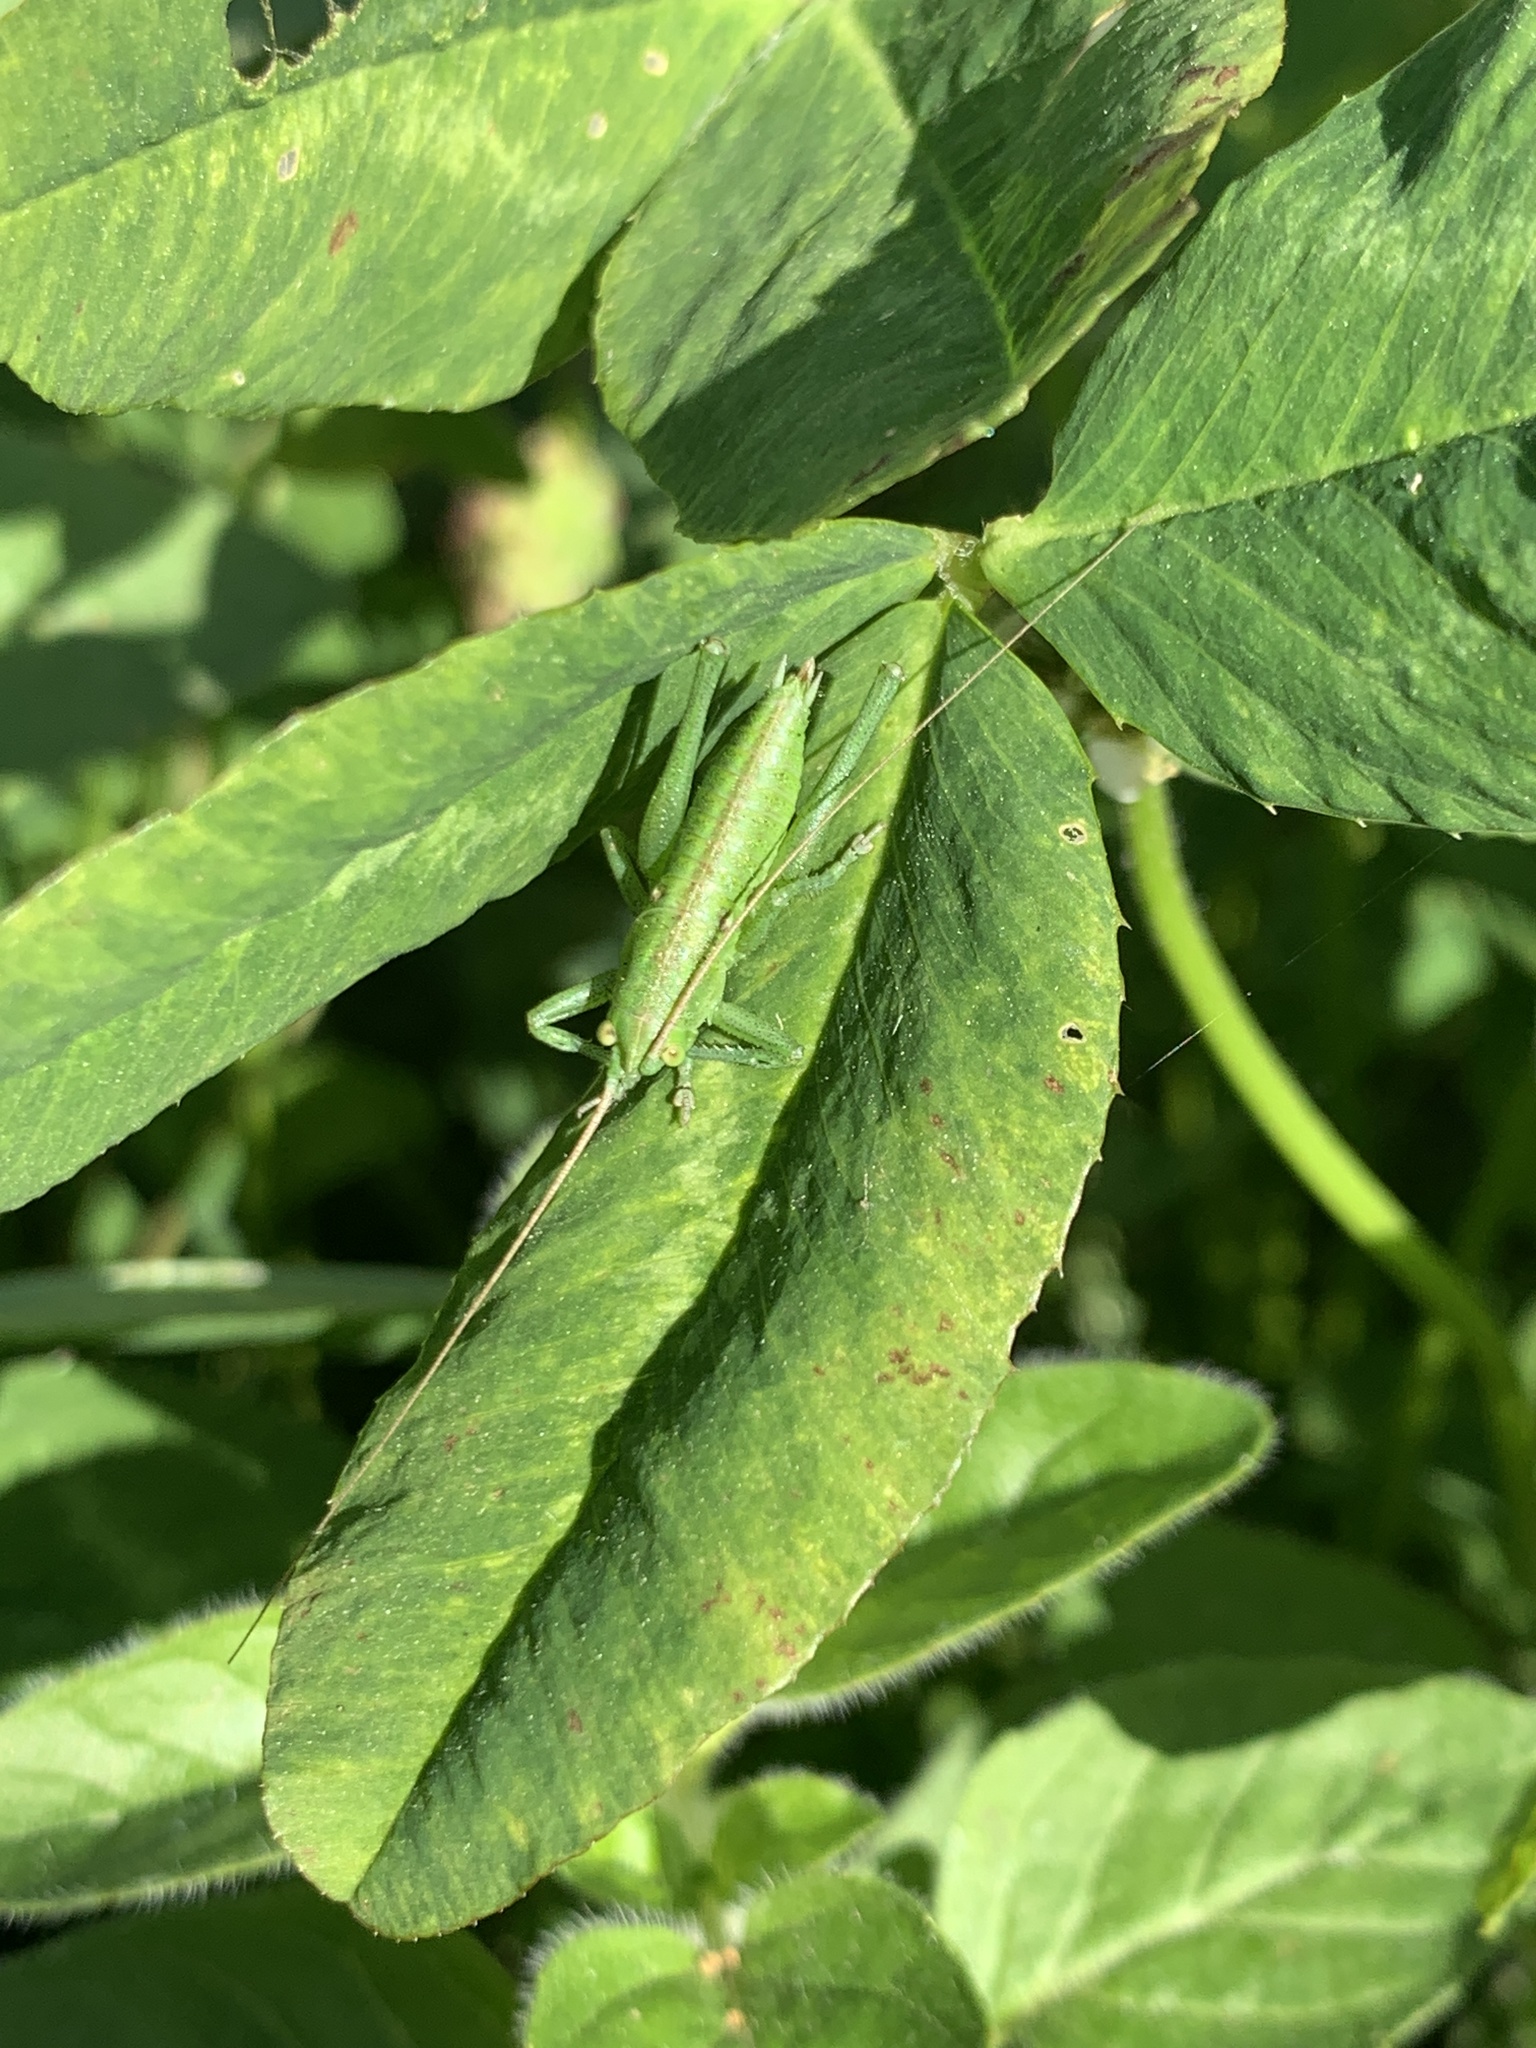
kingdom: Animalia
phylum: Arthropoda
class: Insecta
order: Orthoptera
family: Tettigoniidae
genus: Tettigonia
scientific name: Tettigonia viridissima
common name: Great green bush-cricket
